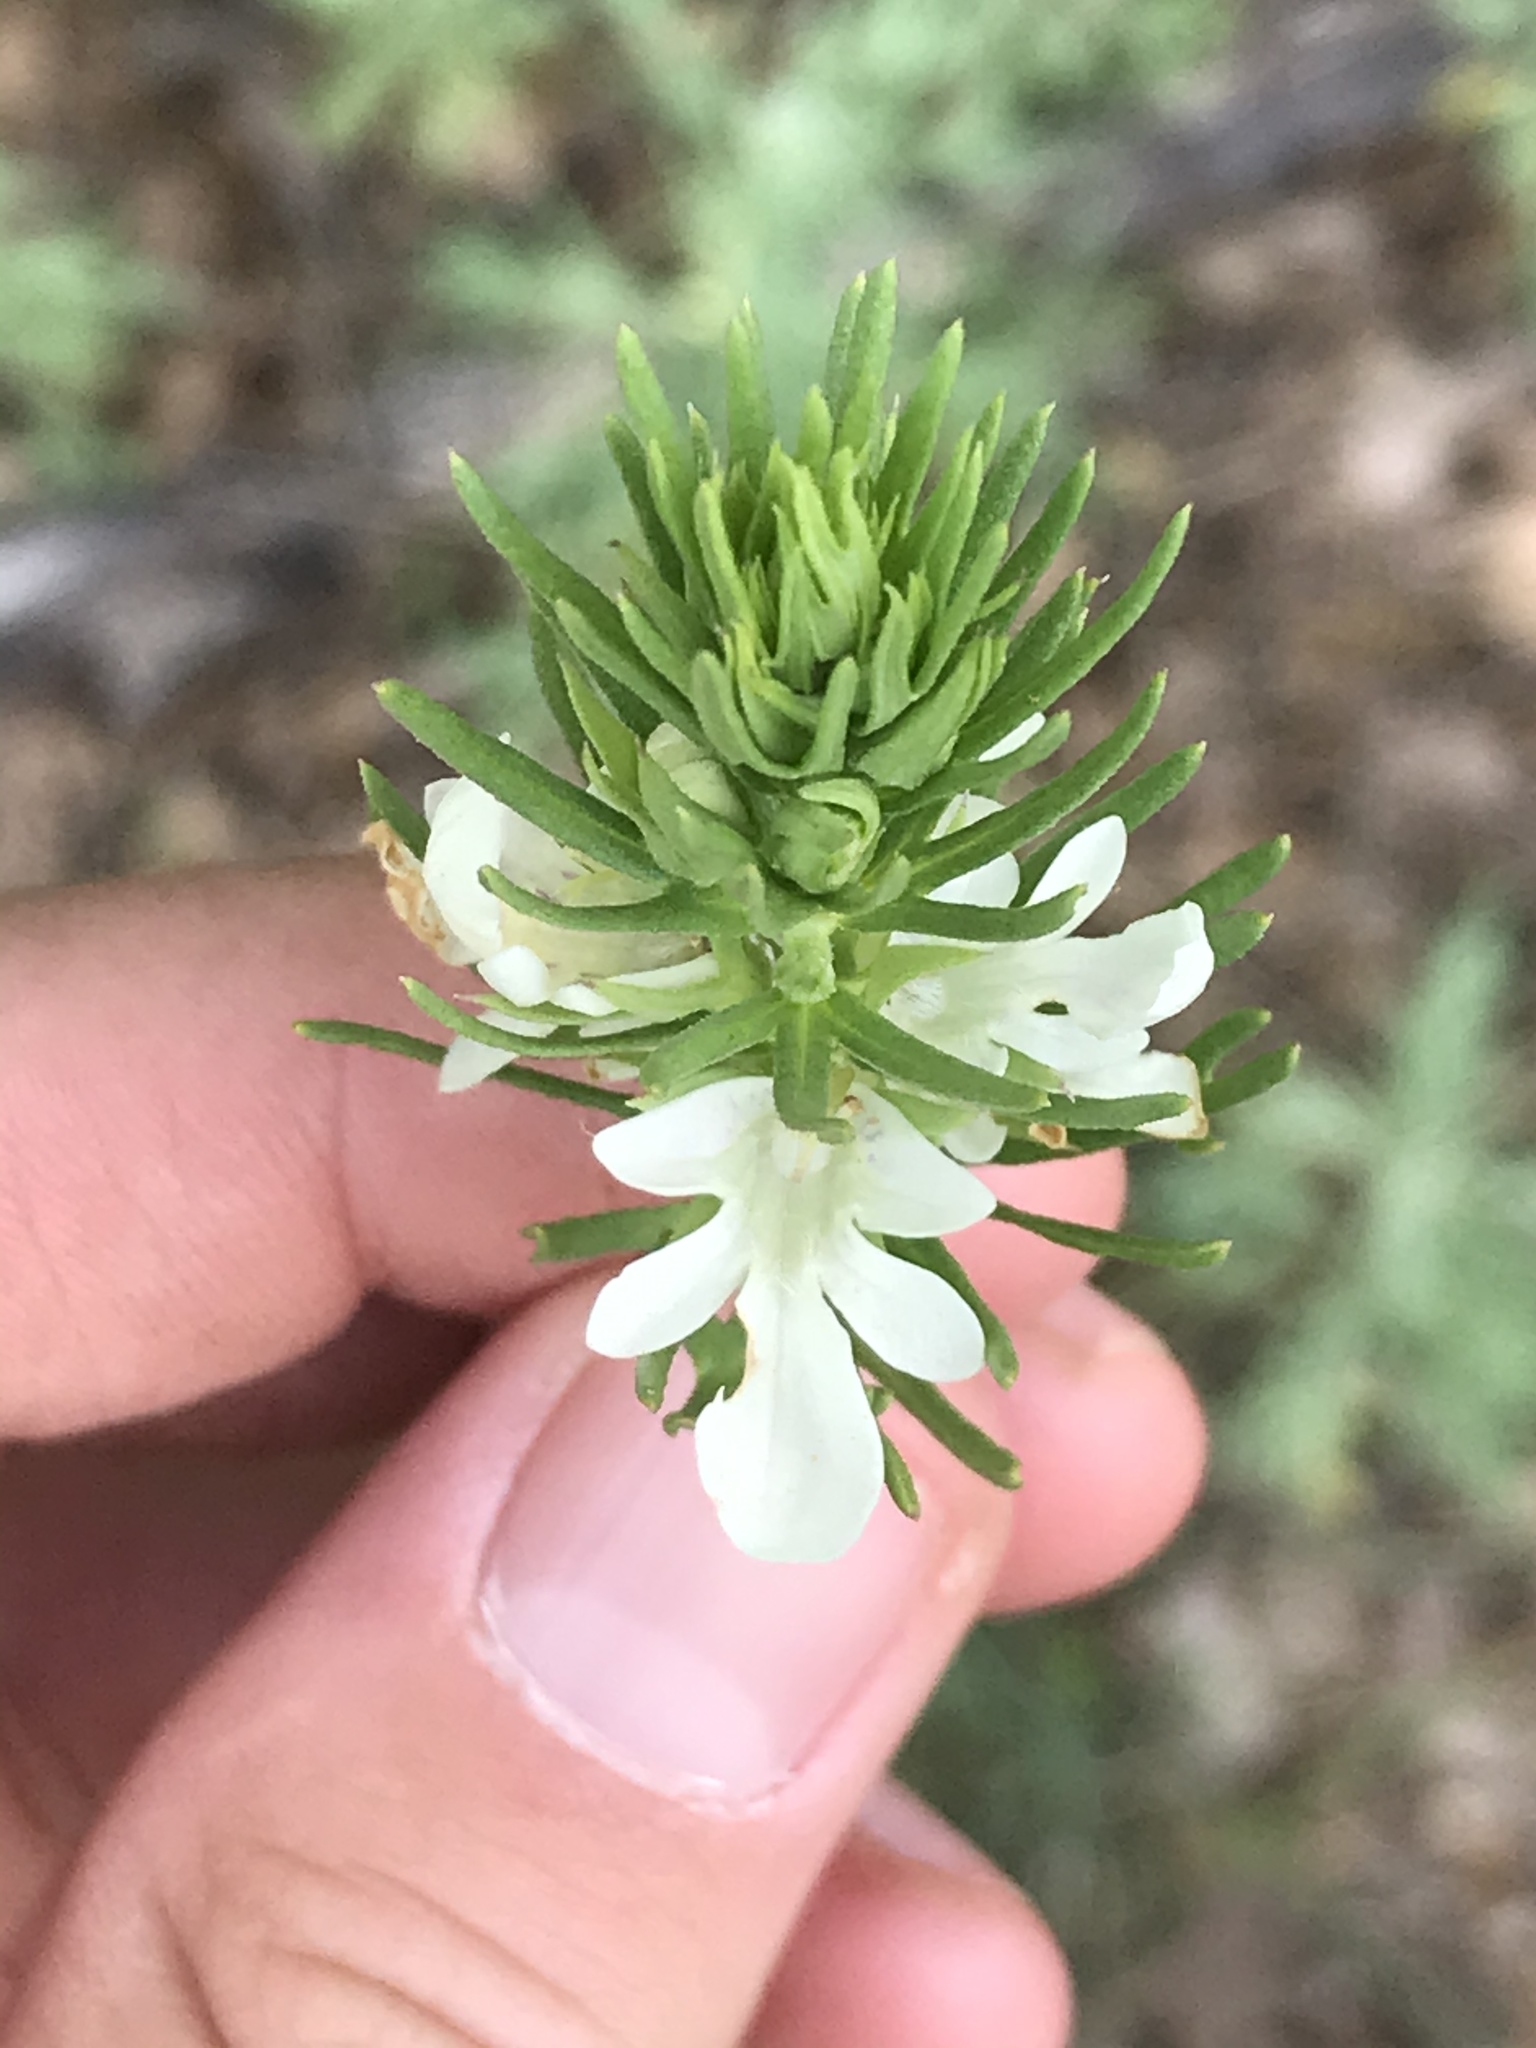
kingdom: Plantae
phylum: Tracheophyta
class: Magnoliopsida
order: Lamiales
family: Lamiaceae
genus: Teucrium
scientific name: Teucrium laciniatum
